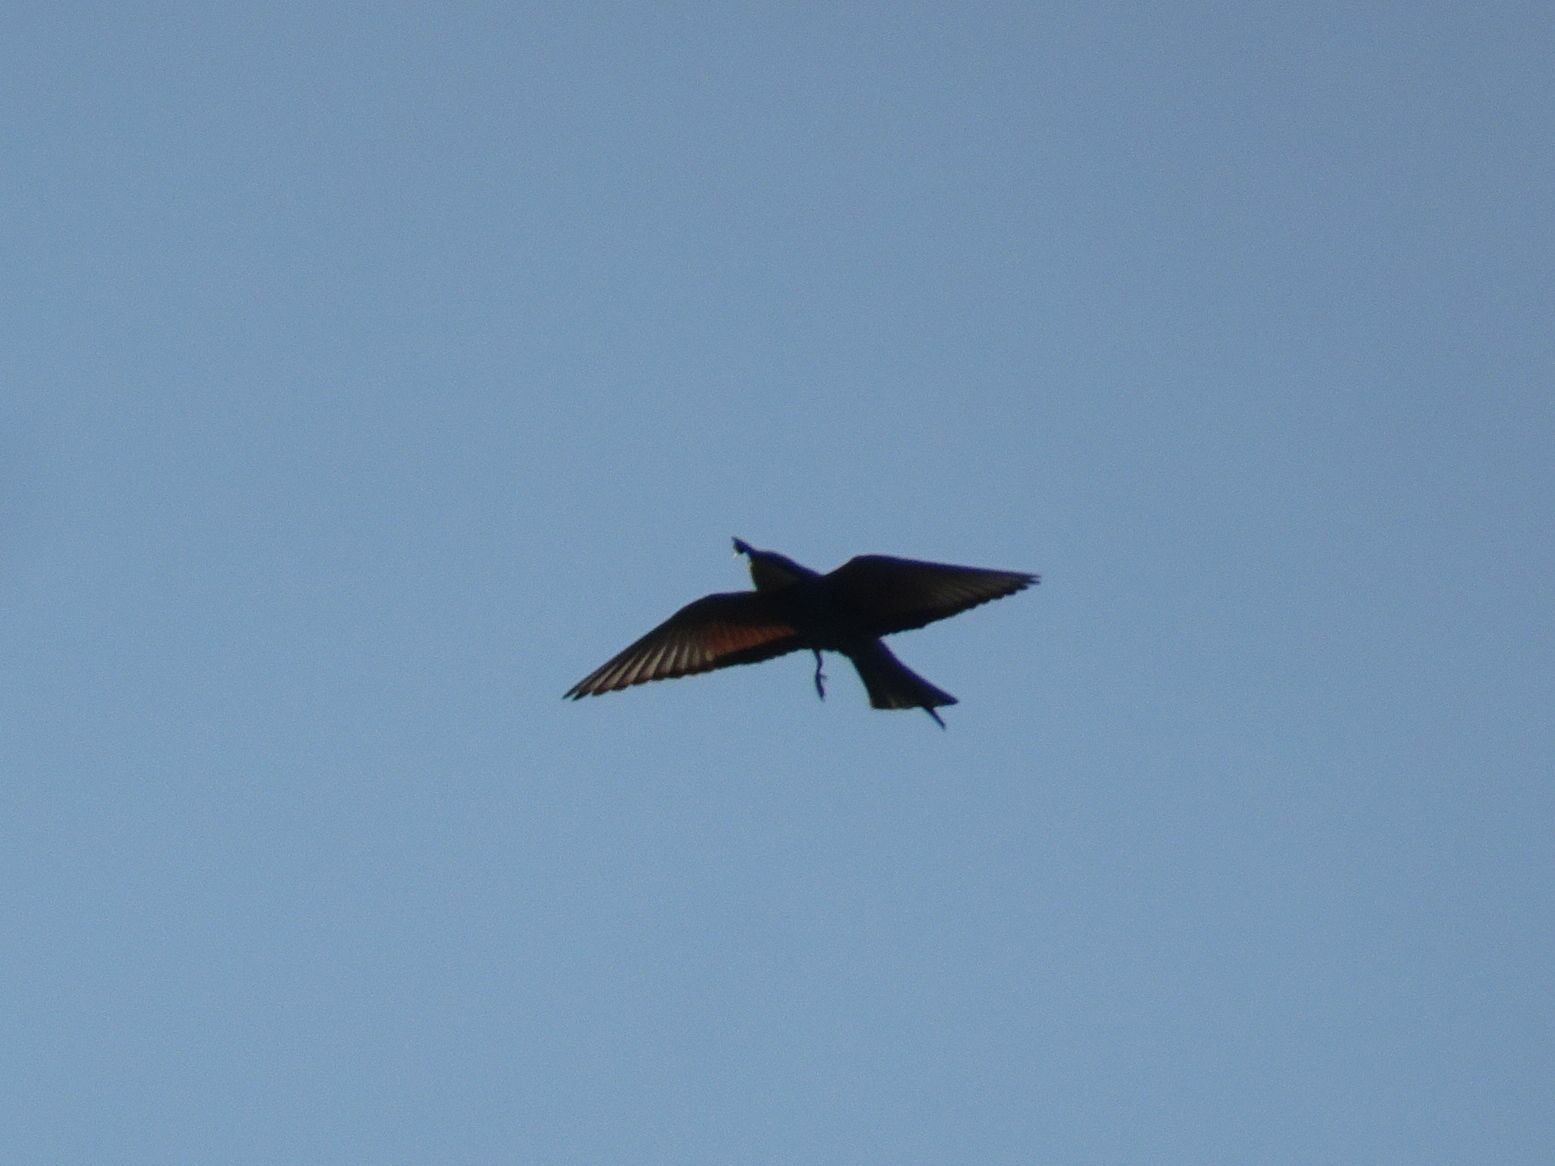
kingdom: Animalia
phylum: Chordata
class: Aves
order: Coraciiformes
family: Meropidae
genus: Merops
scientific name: Merops apiaster
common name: European bee-eater
